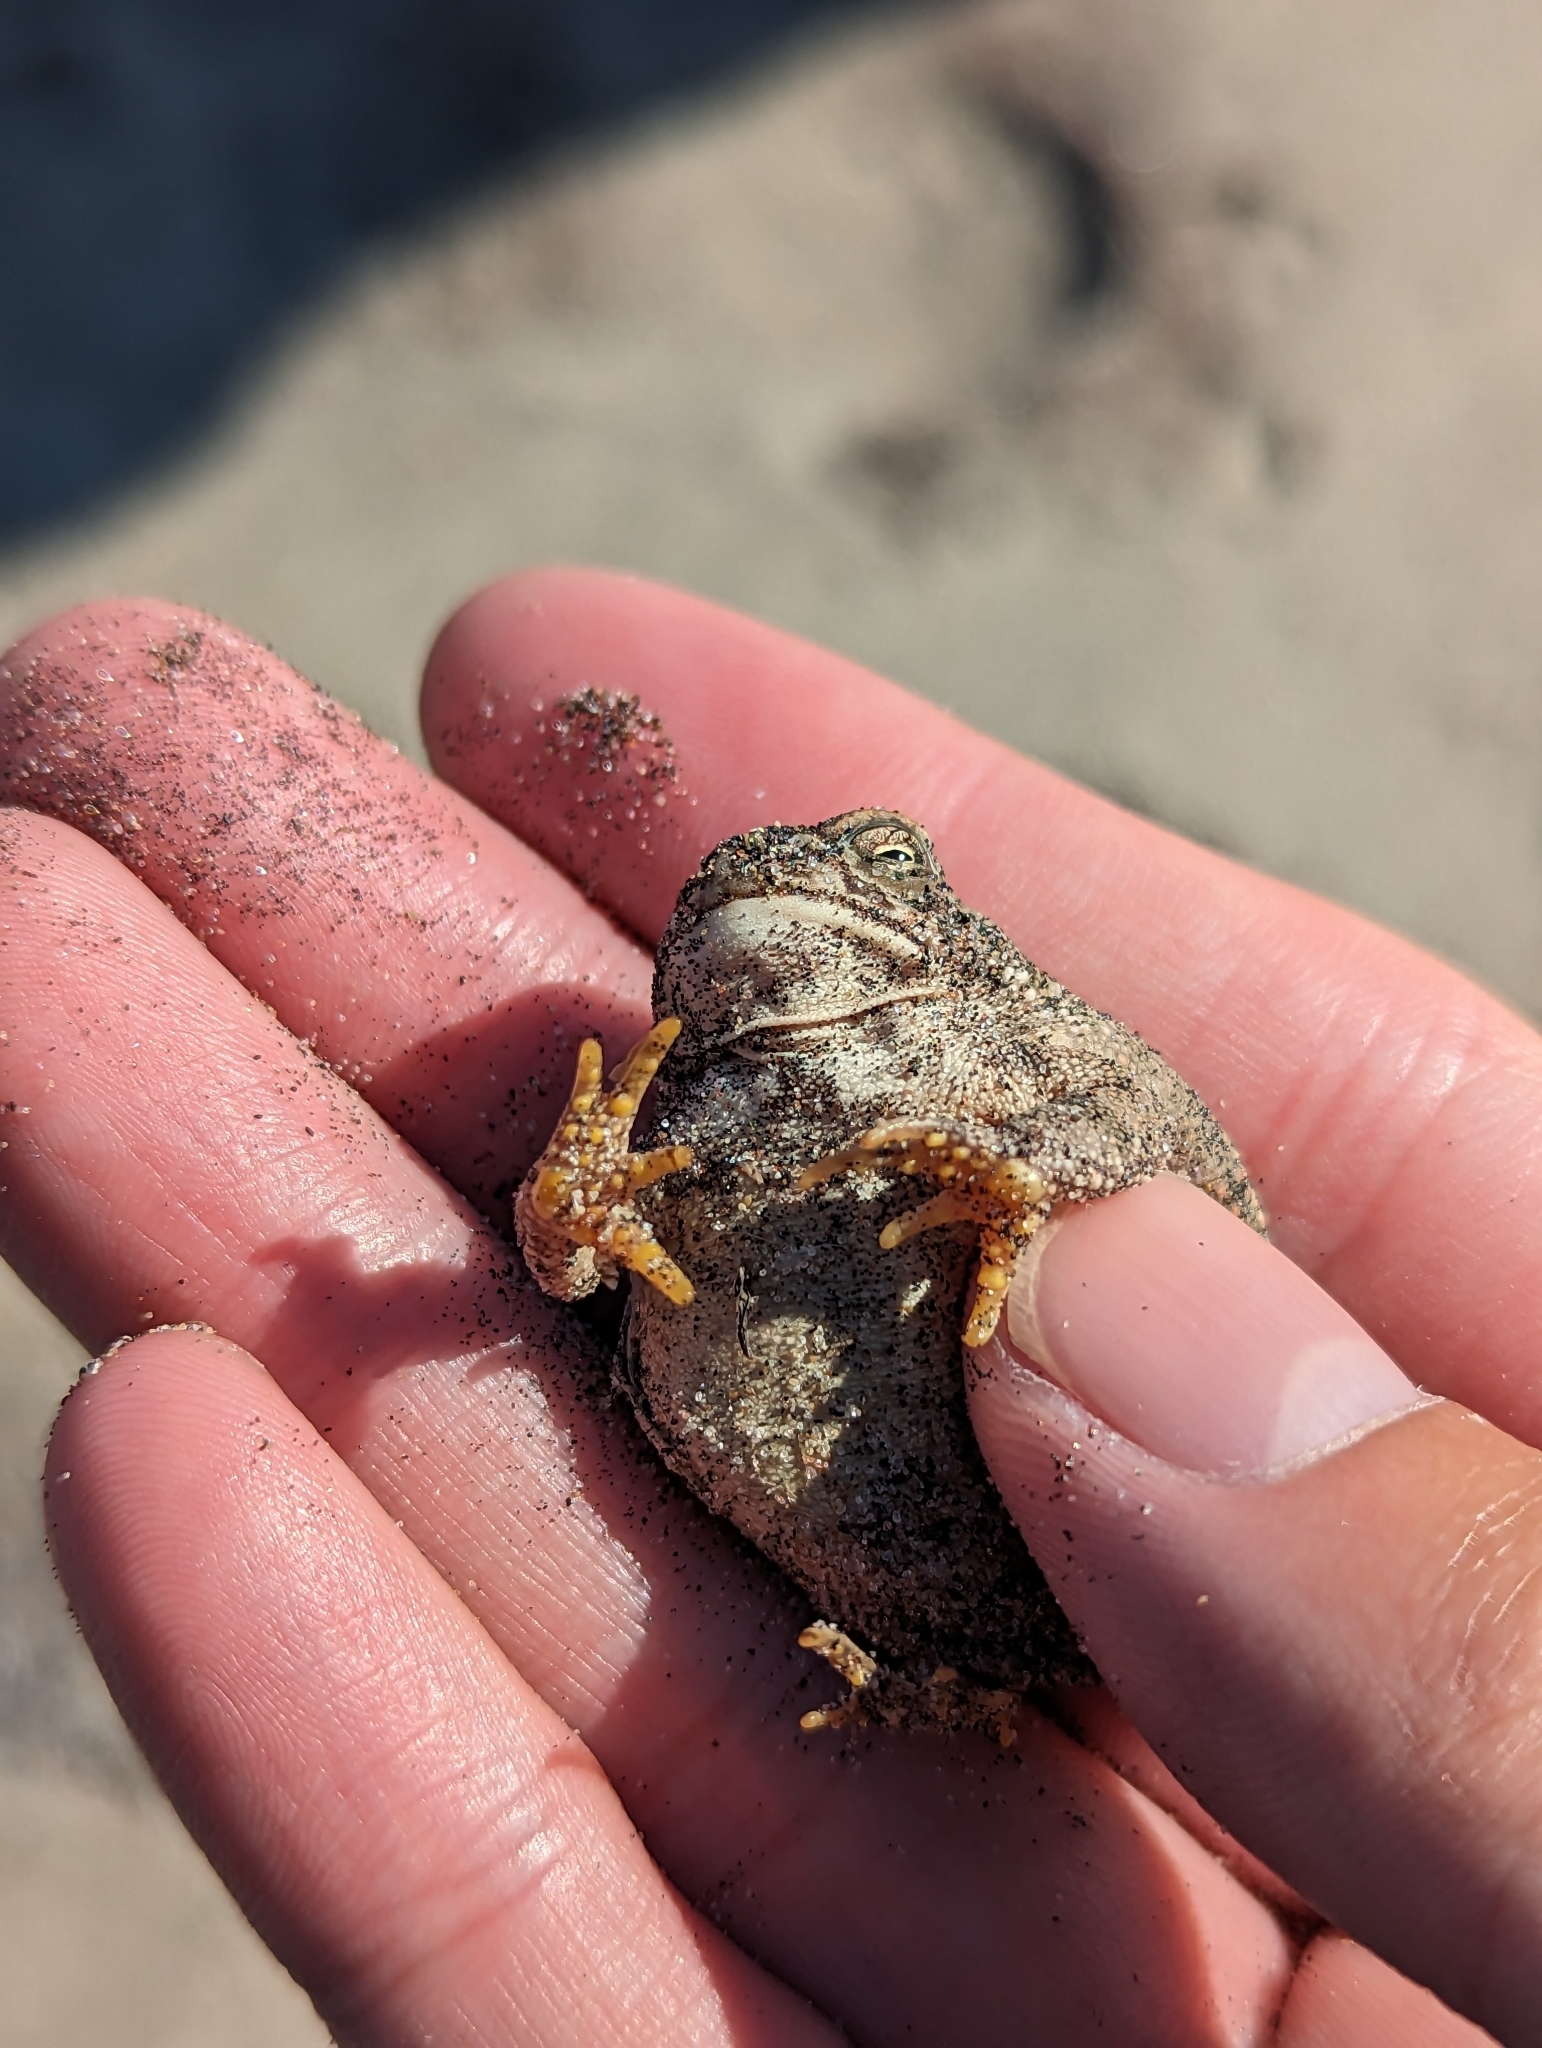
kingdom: Animalia
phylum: Chordata
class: Amphibia
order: Anura
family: Bufonidae
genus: Anaxyrus
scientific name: Anaxyrus fowleri
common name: Fowler's toad
